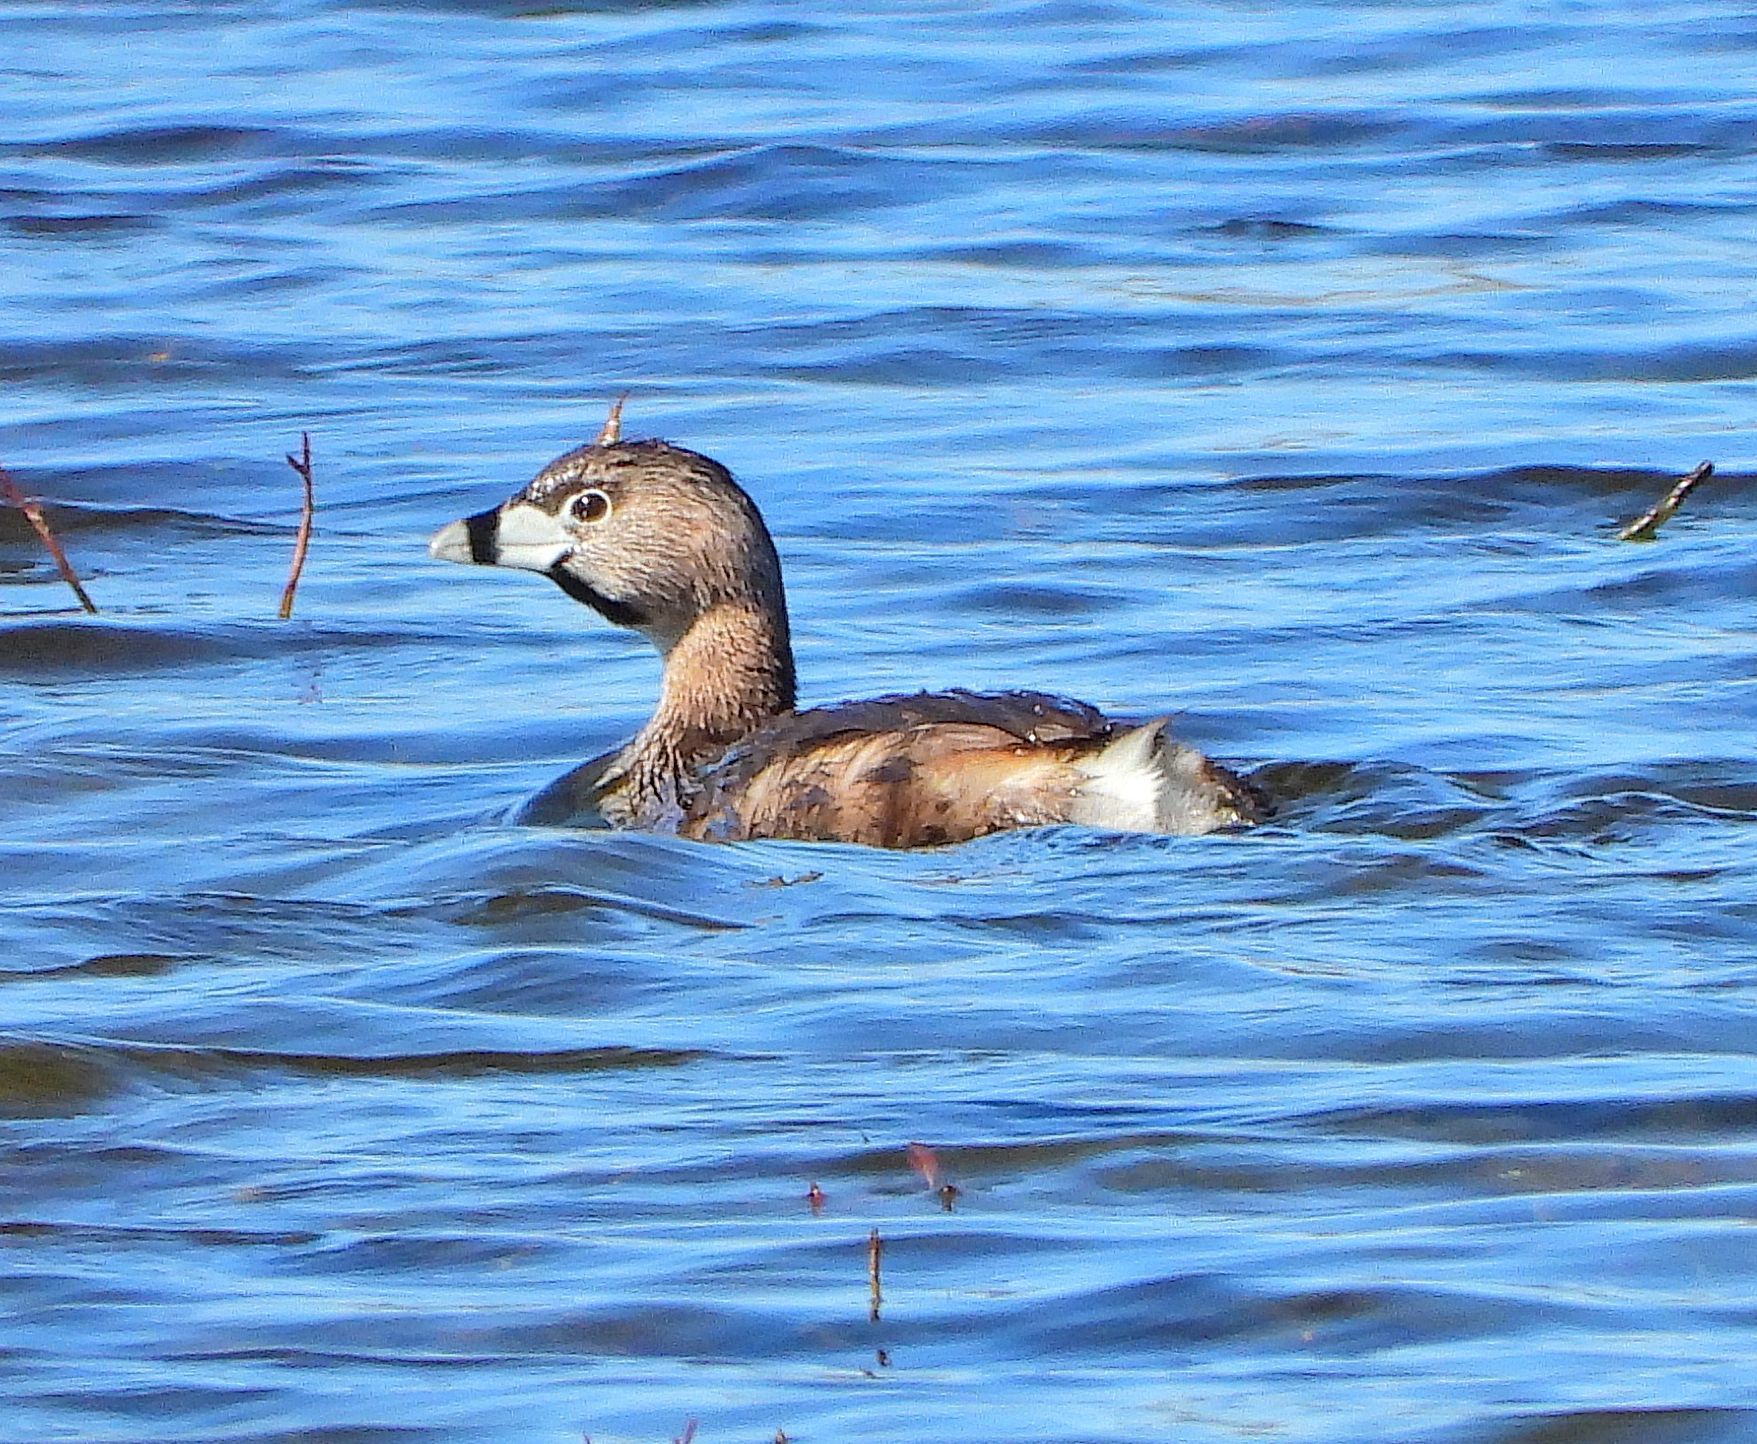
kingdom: Animalia
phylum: Chordata
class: Aves
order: Podicipediformes
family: Podicipedidae
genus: Podilymbus
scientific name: Podilymbus podiceps
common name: Pied-billed grebe
